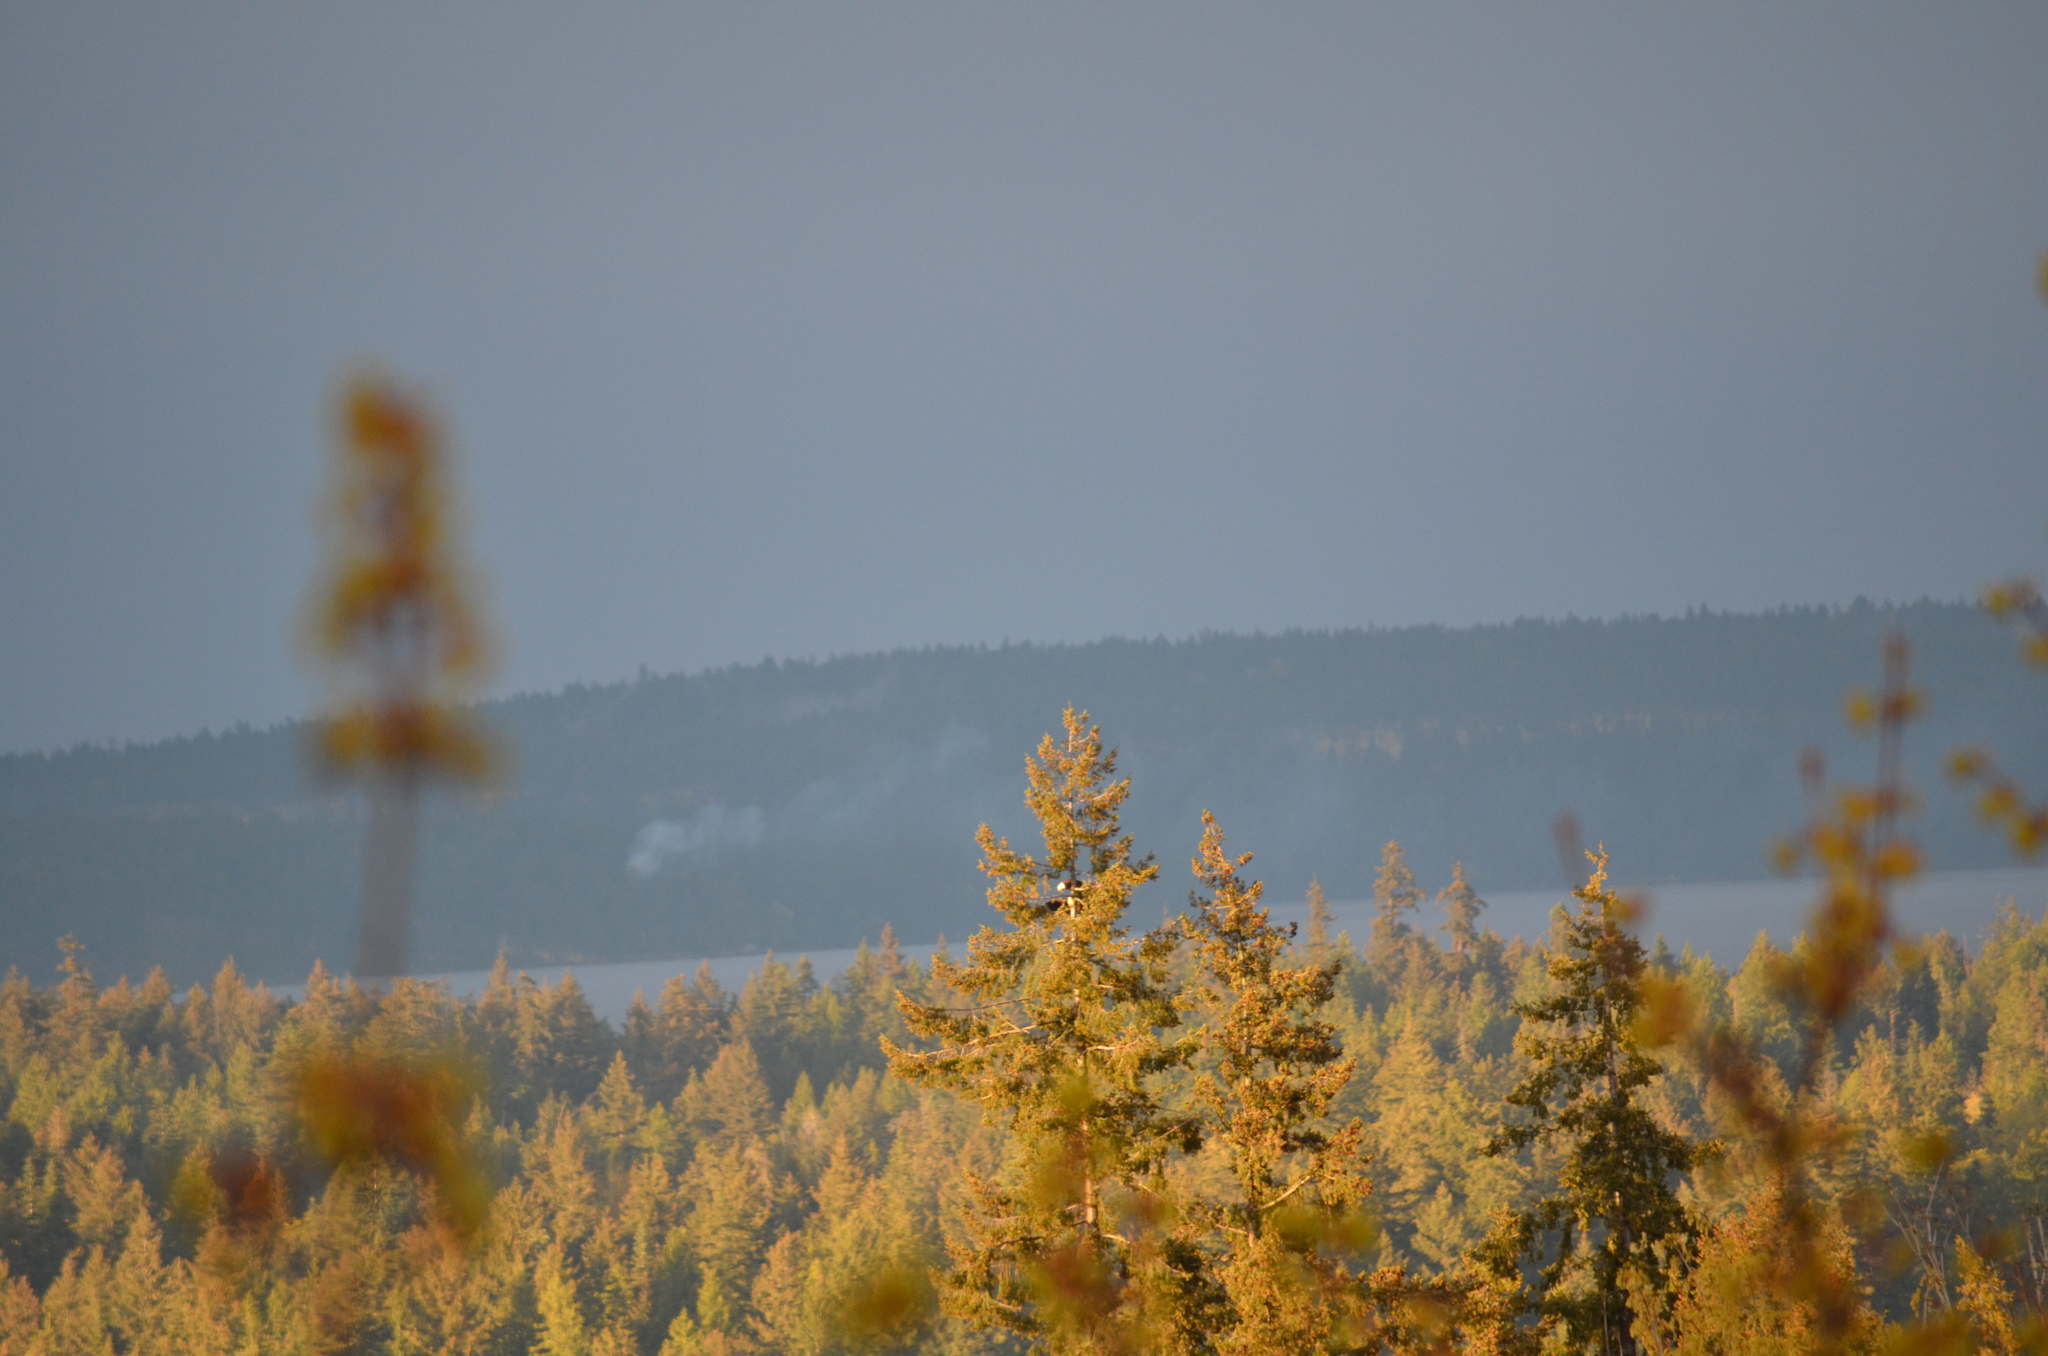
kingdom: Animalia
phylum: Chordata
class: Aves
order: Accipitriformes
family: Accipitridae
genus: Haliaeetus
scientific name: Haliaeetus leucocephalus
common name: Bald eagle
